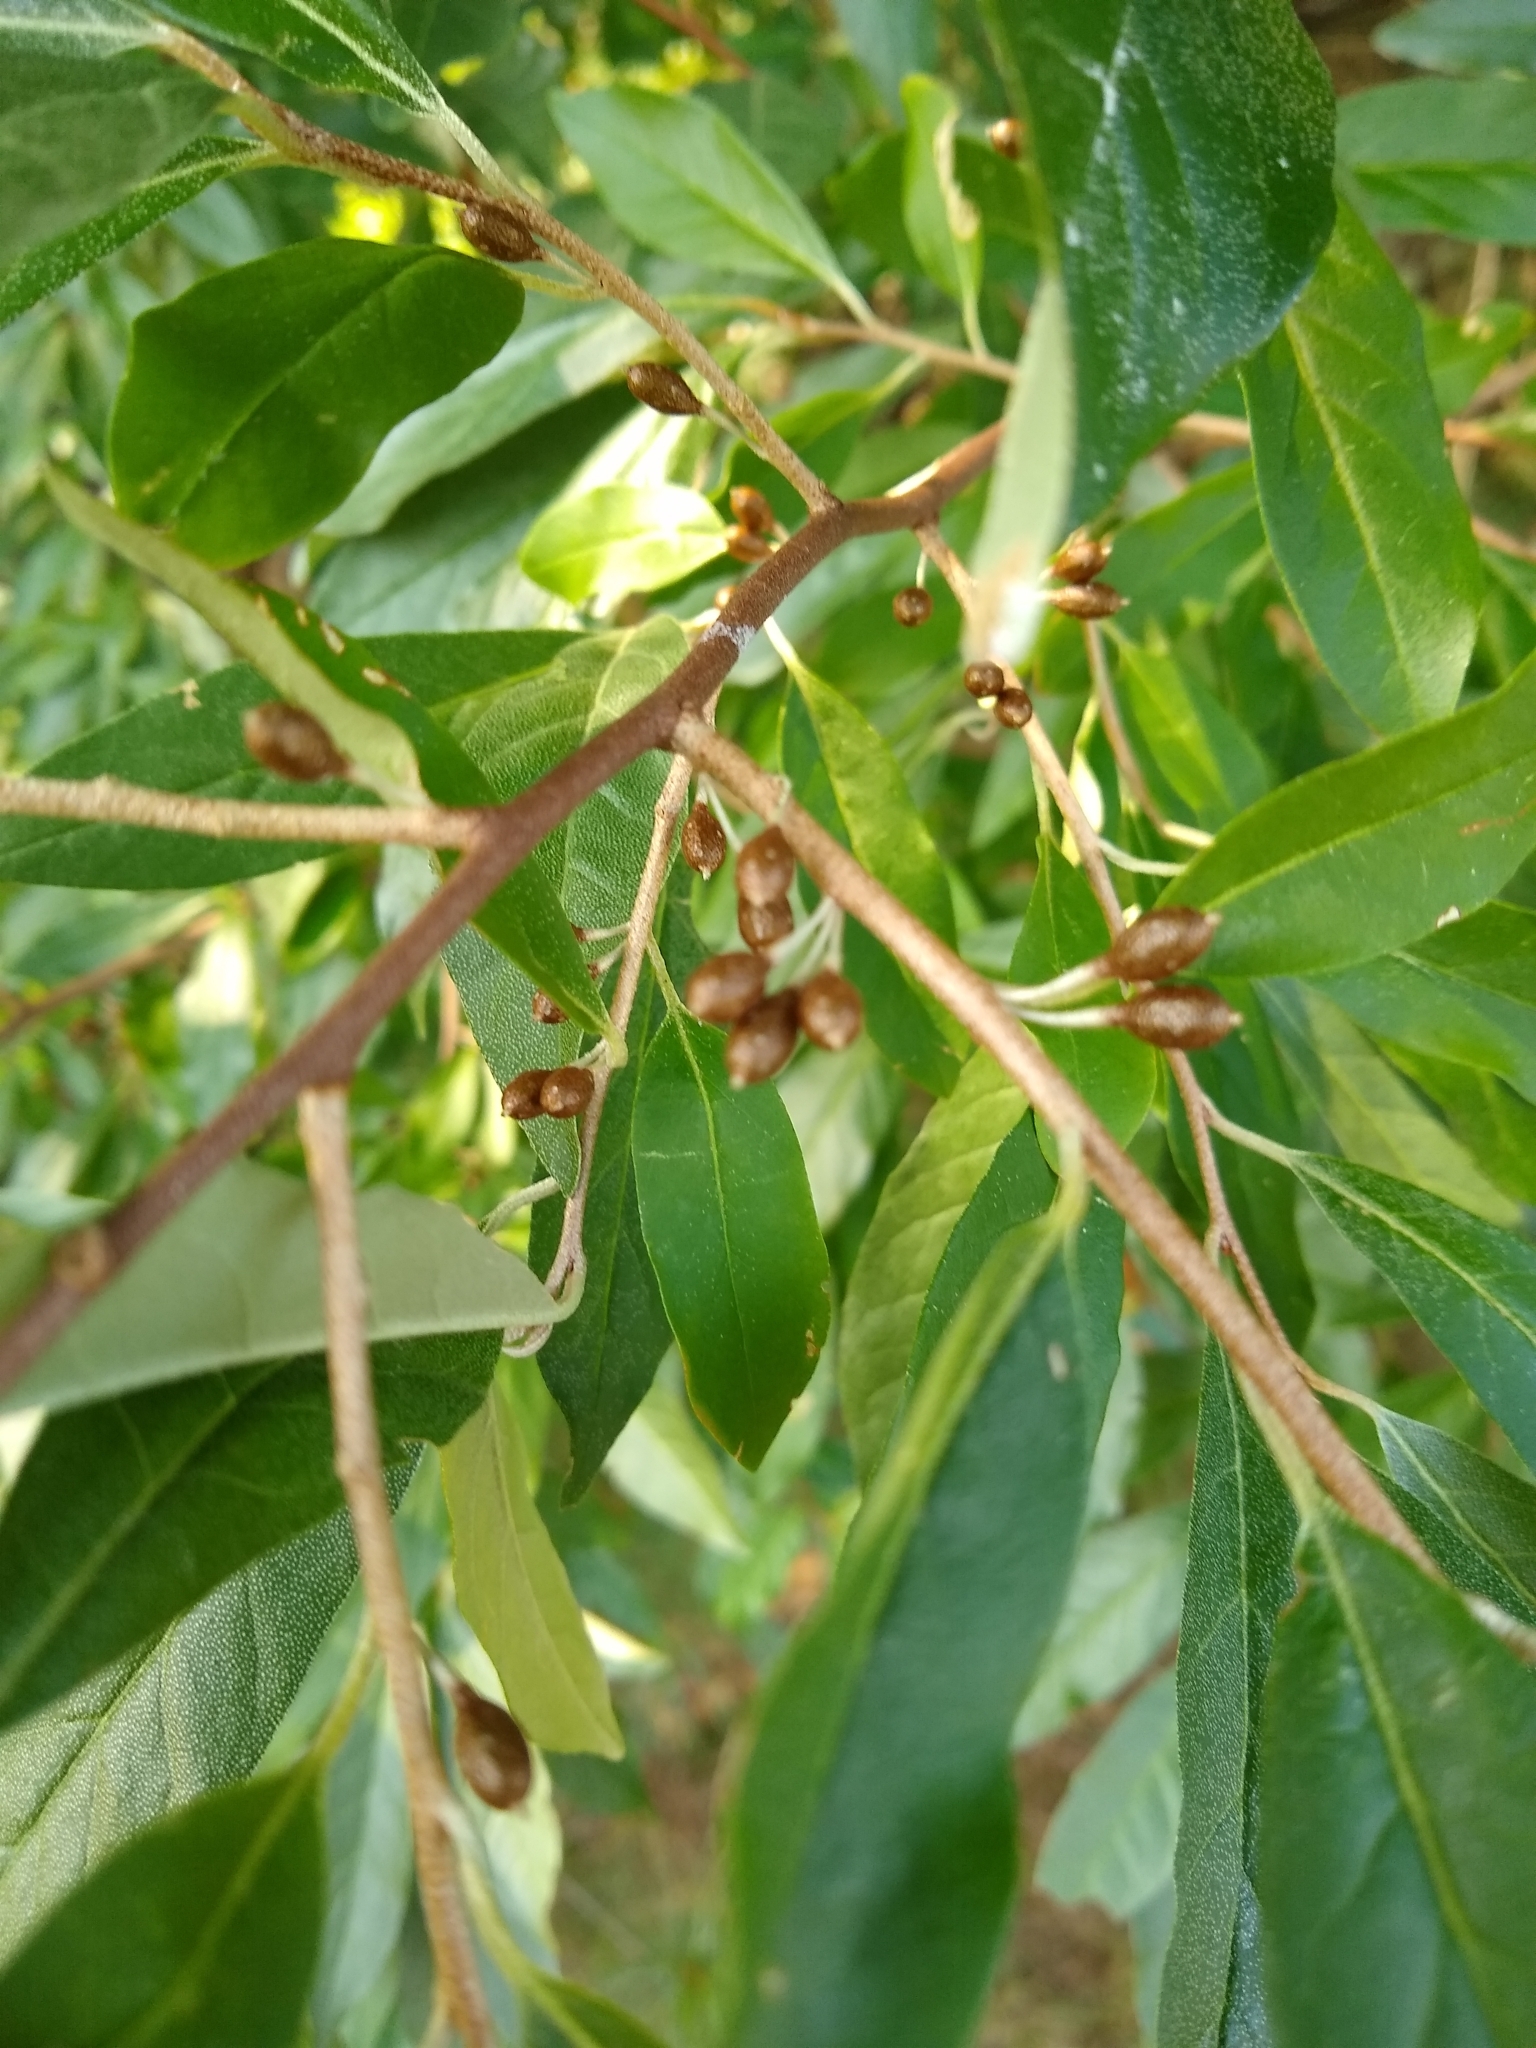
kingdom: Plantae
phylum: Tracheophyta
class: Magnoliopsida
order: Rosales
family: Elaeagnaceae
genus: Elaeagnus
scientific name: Elaeagnus umbellata
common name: Autumn olive
